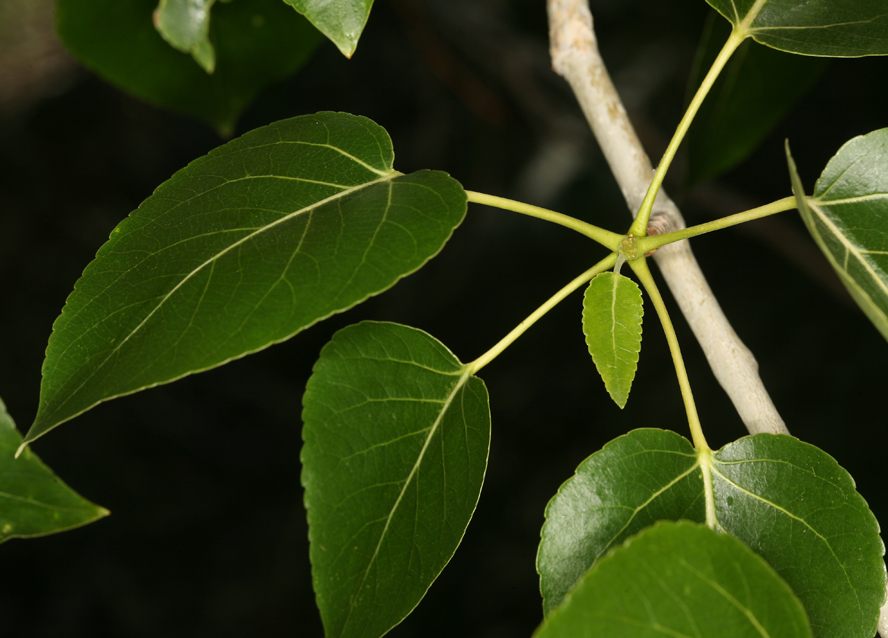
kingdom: Plantae
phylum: Tracheophyta
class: Magnoliopsida
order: Malpighiales
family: Salicaceae
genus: Populus
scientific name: Populus trichocarpa
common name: Black cottonwood
